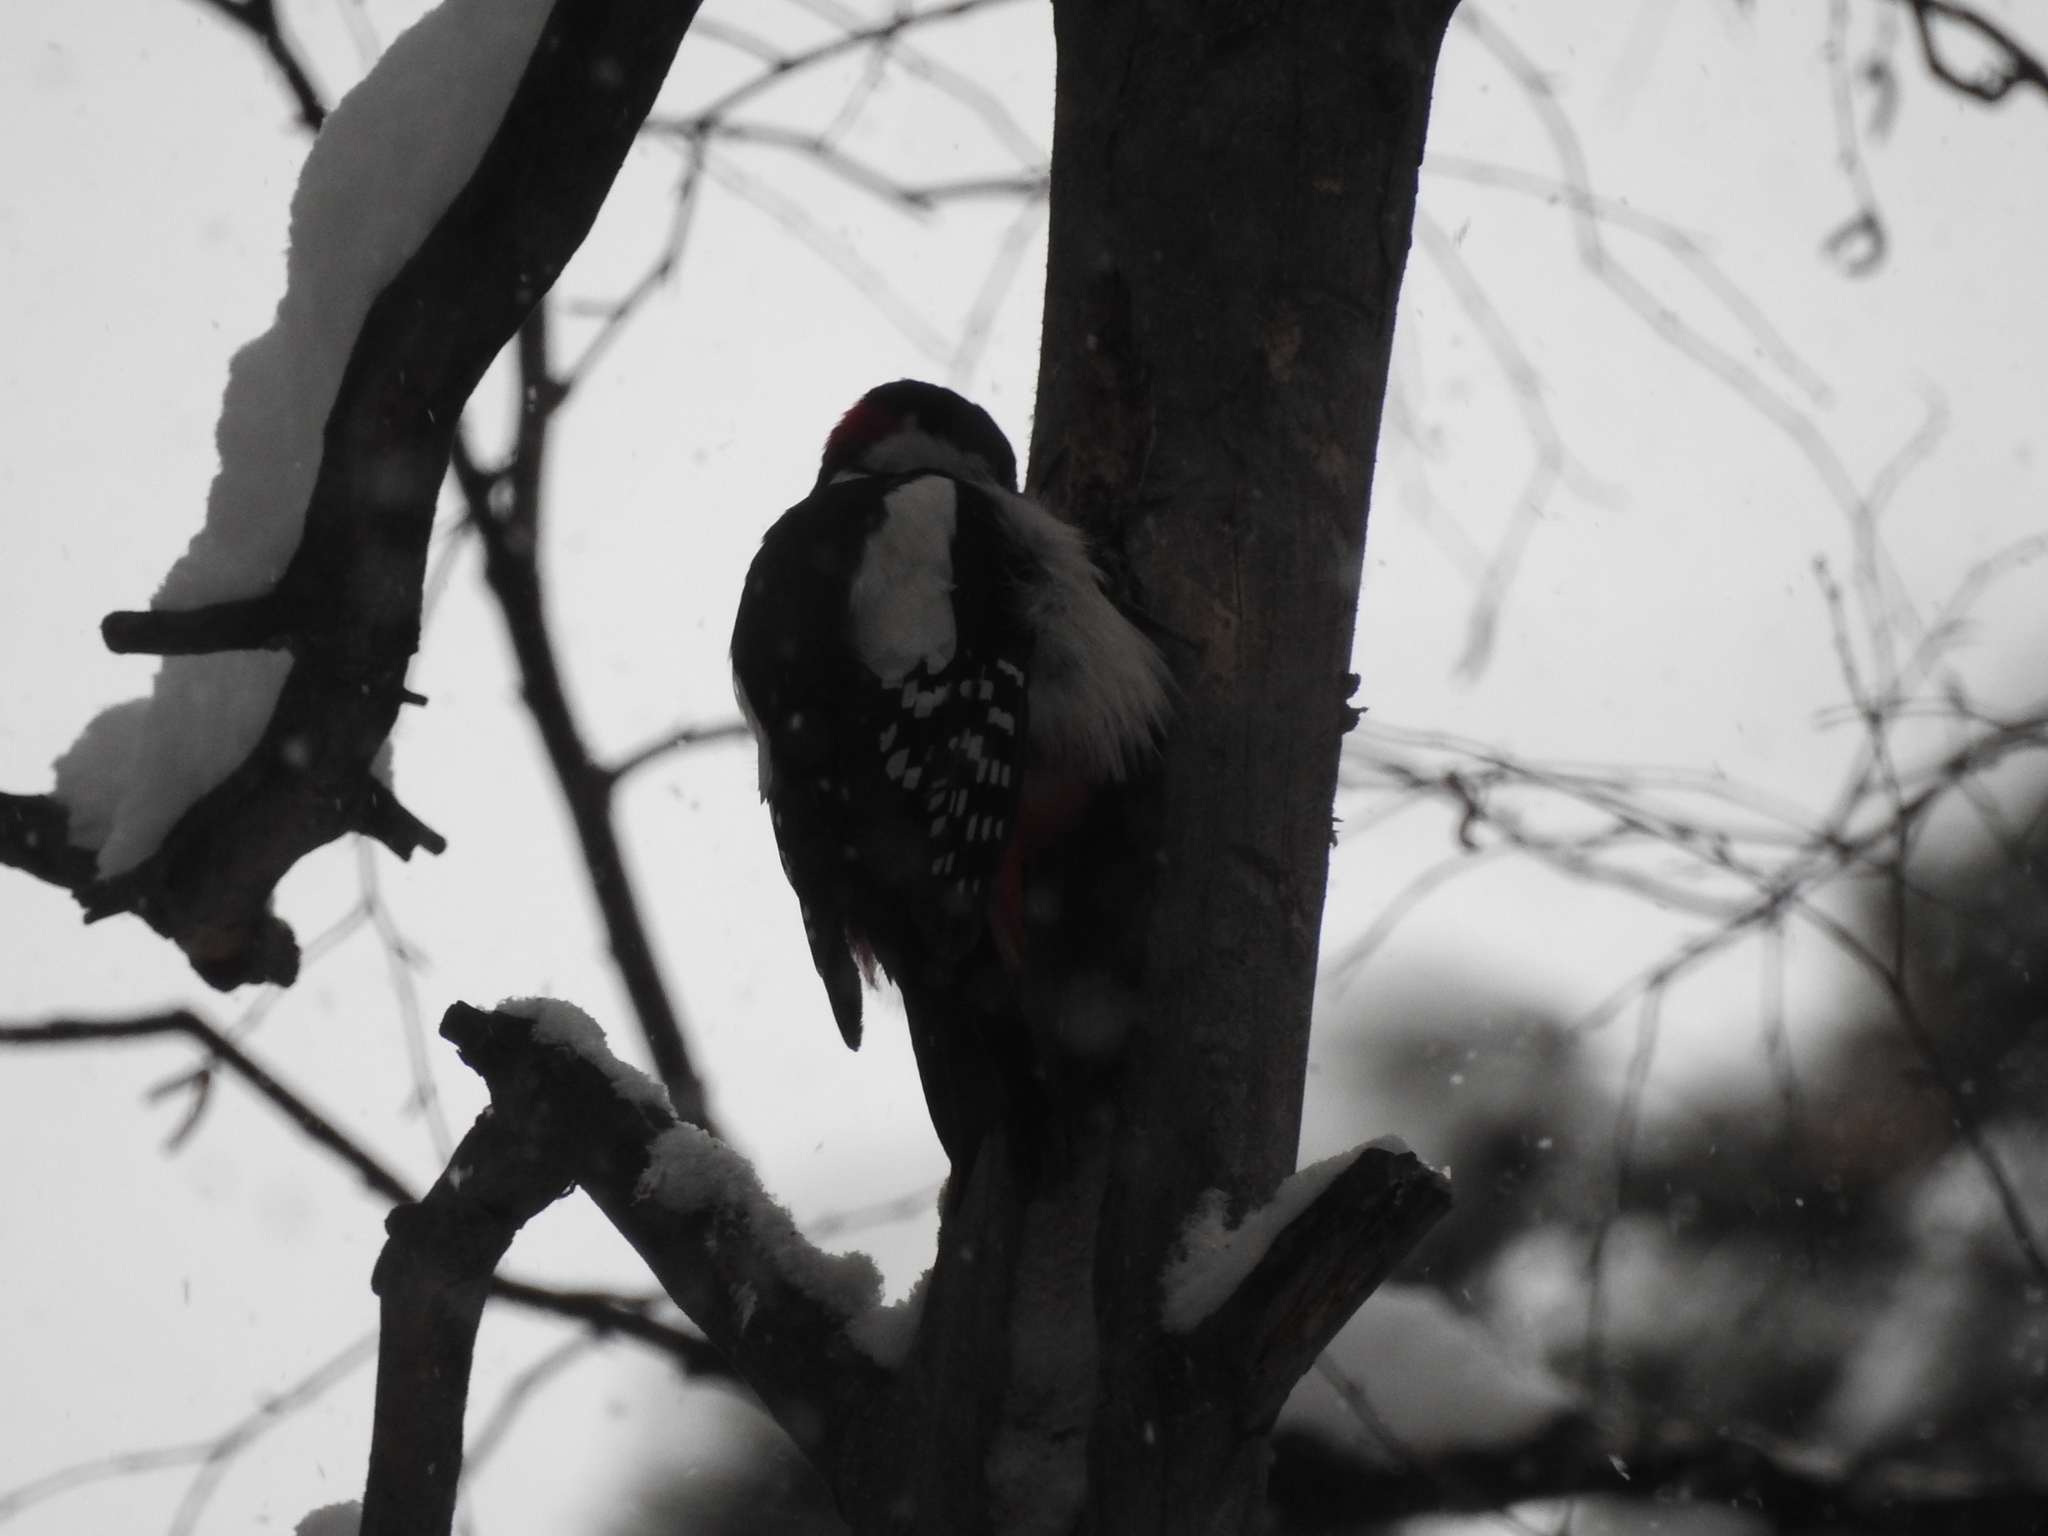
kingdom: Animalia
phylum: Chordata
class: Aves
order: Piciformes
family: Picidae
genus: Dendrocopos
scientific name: Dendrocopos major
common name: Great spotted woodpecker
